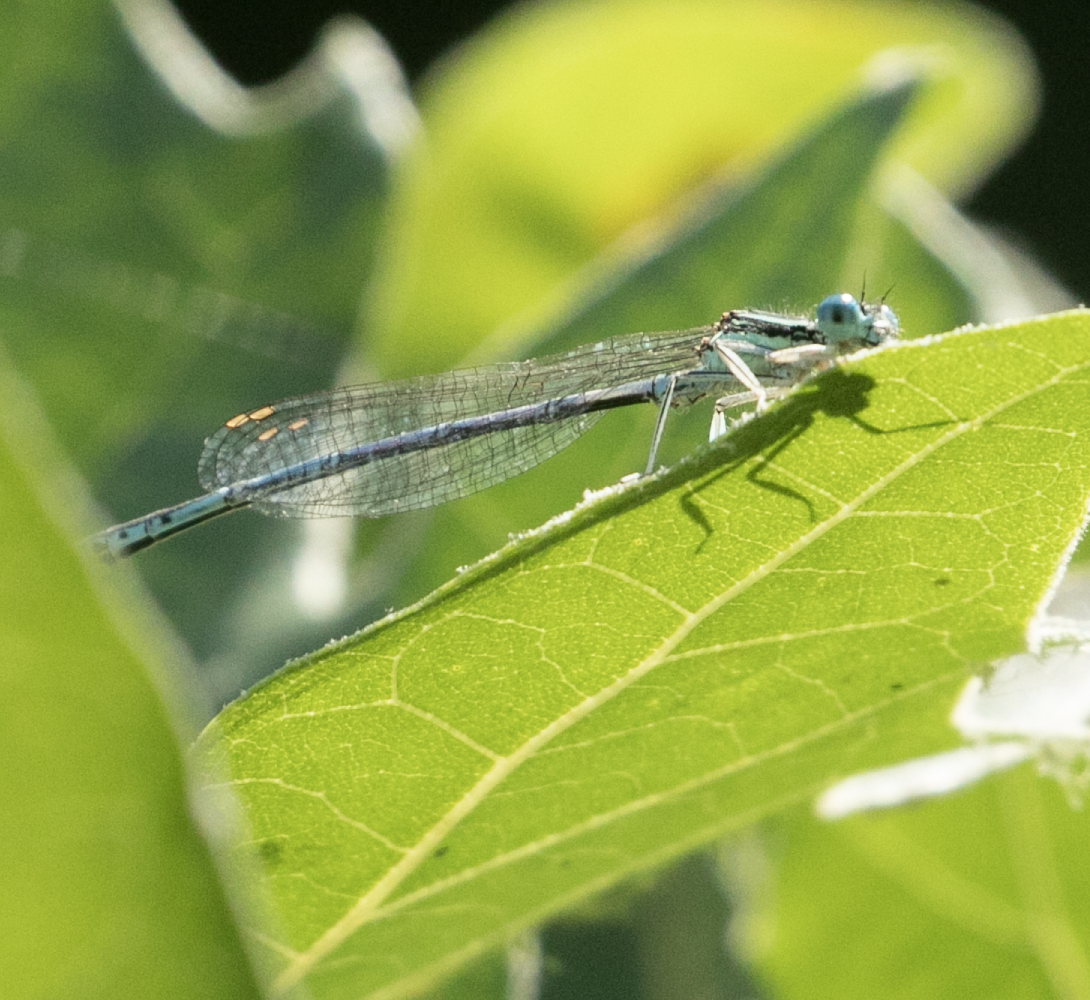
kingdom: Animalia
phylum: Arthropoda
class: Insecta
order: Odonata
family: Platycnemididae
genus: Platycnemis
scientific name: Platycnemis pennipes
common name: White-legged damselfly
